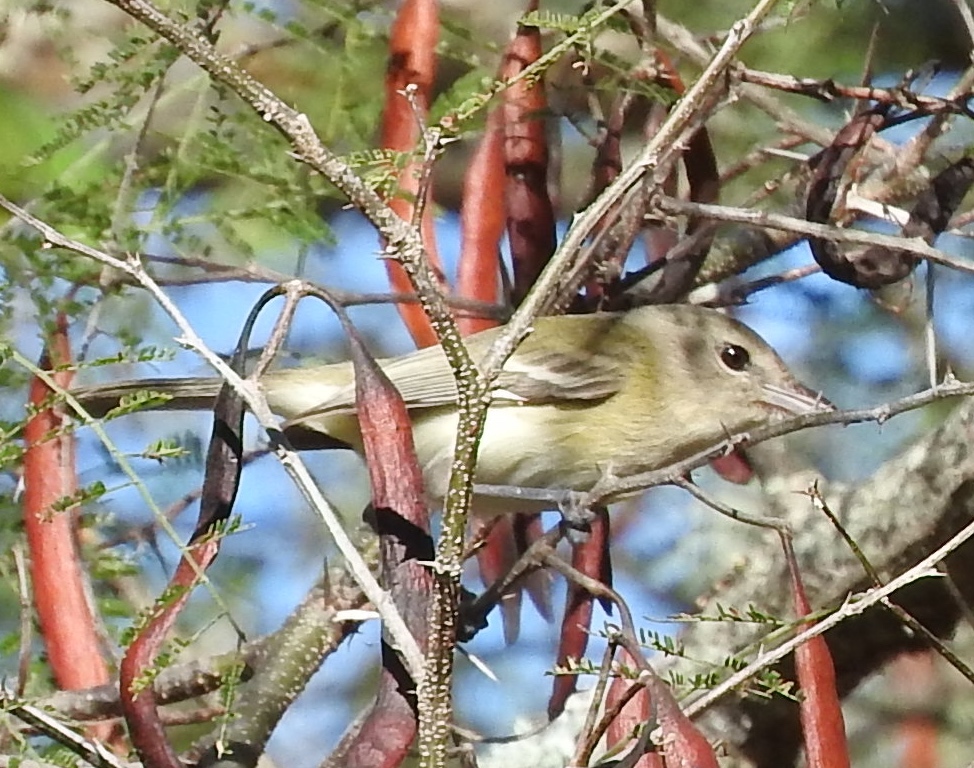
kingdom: Animalia
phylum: Chordata
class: Aves
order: Passeriformes
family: Vireonidae
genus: Vireo
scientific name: Vireo bellii
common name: Bell's vireo
